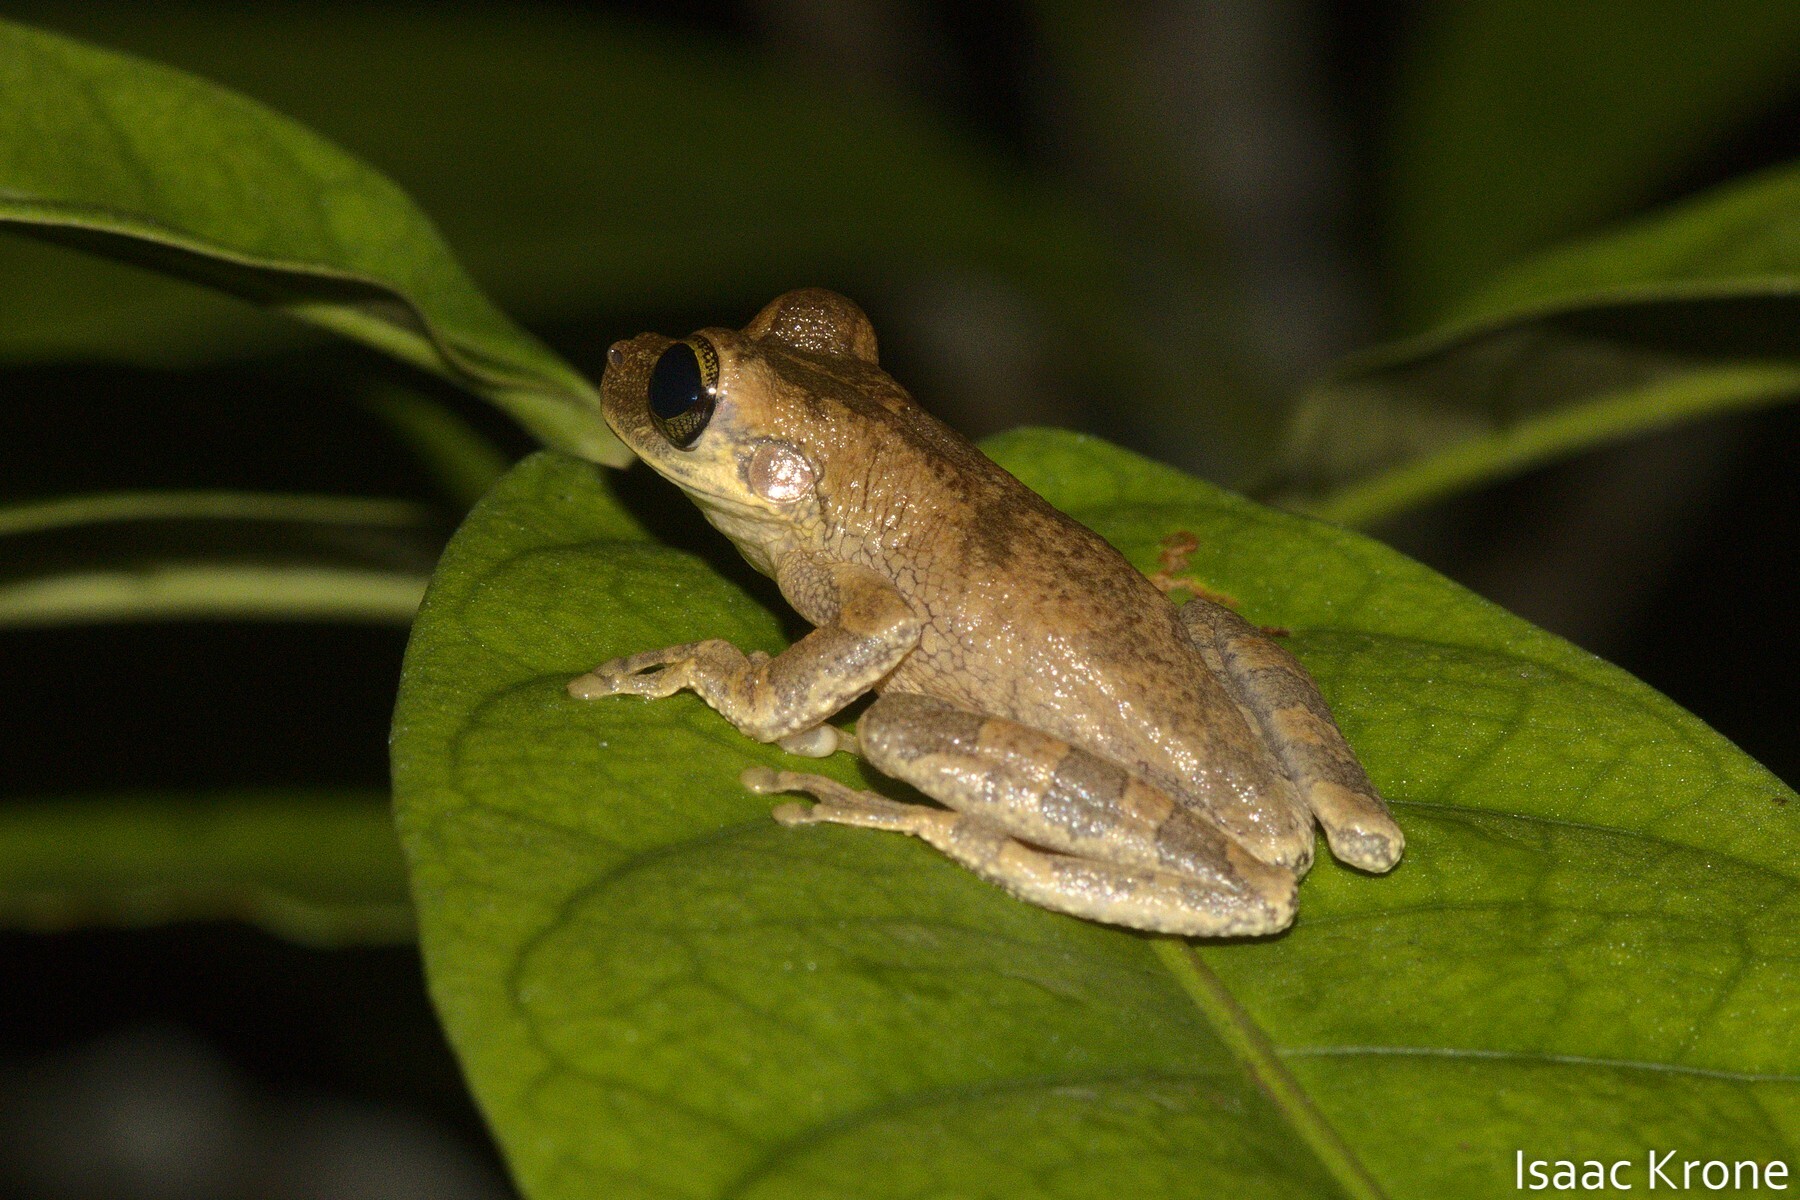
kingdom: Animalia
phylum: Chordata
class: Amphibia
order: Anura
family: Hylidae
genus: Osteocephalus
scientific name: Osteocephalus deridens
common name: Funny slender-legged treefrog
